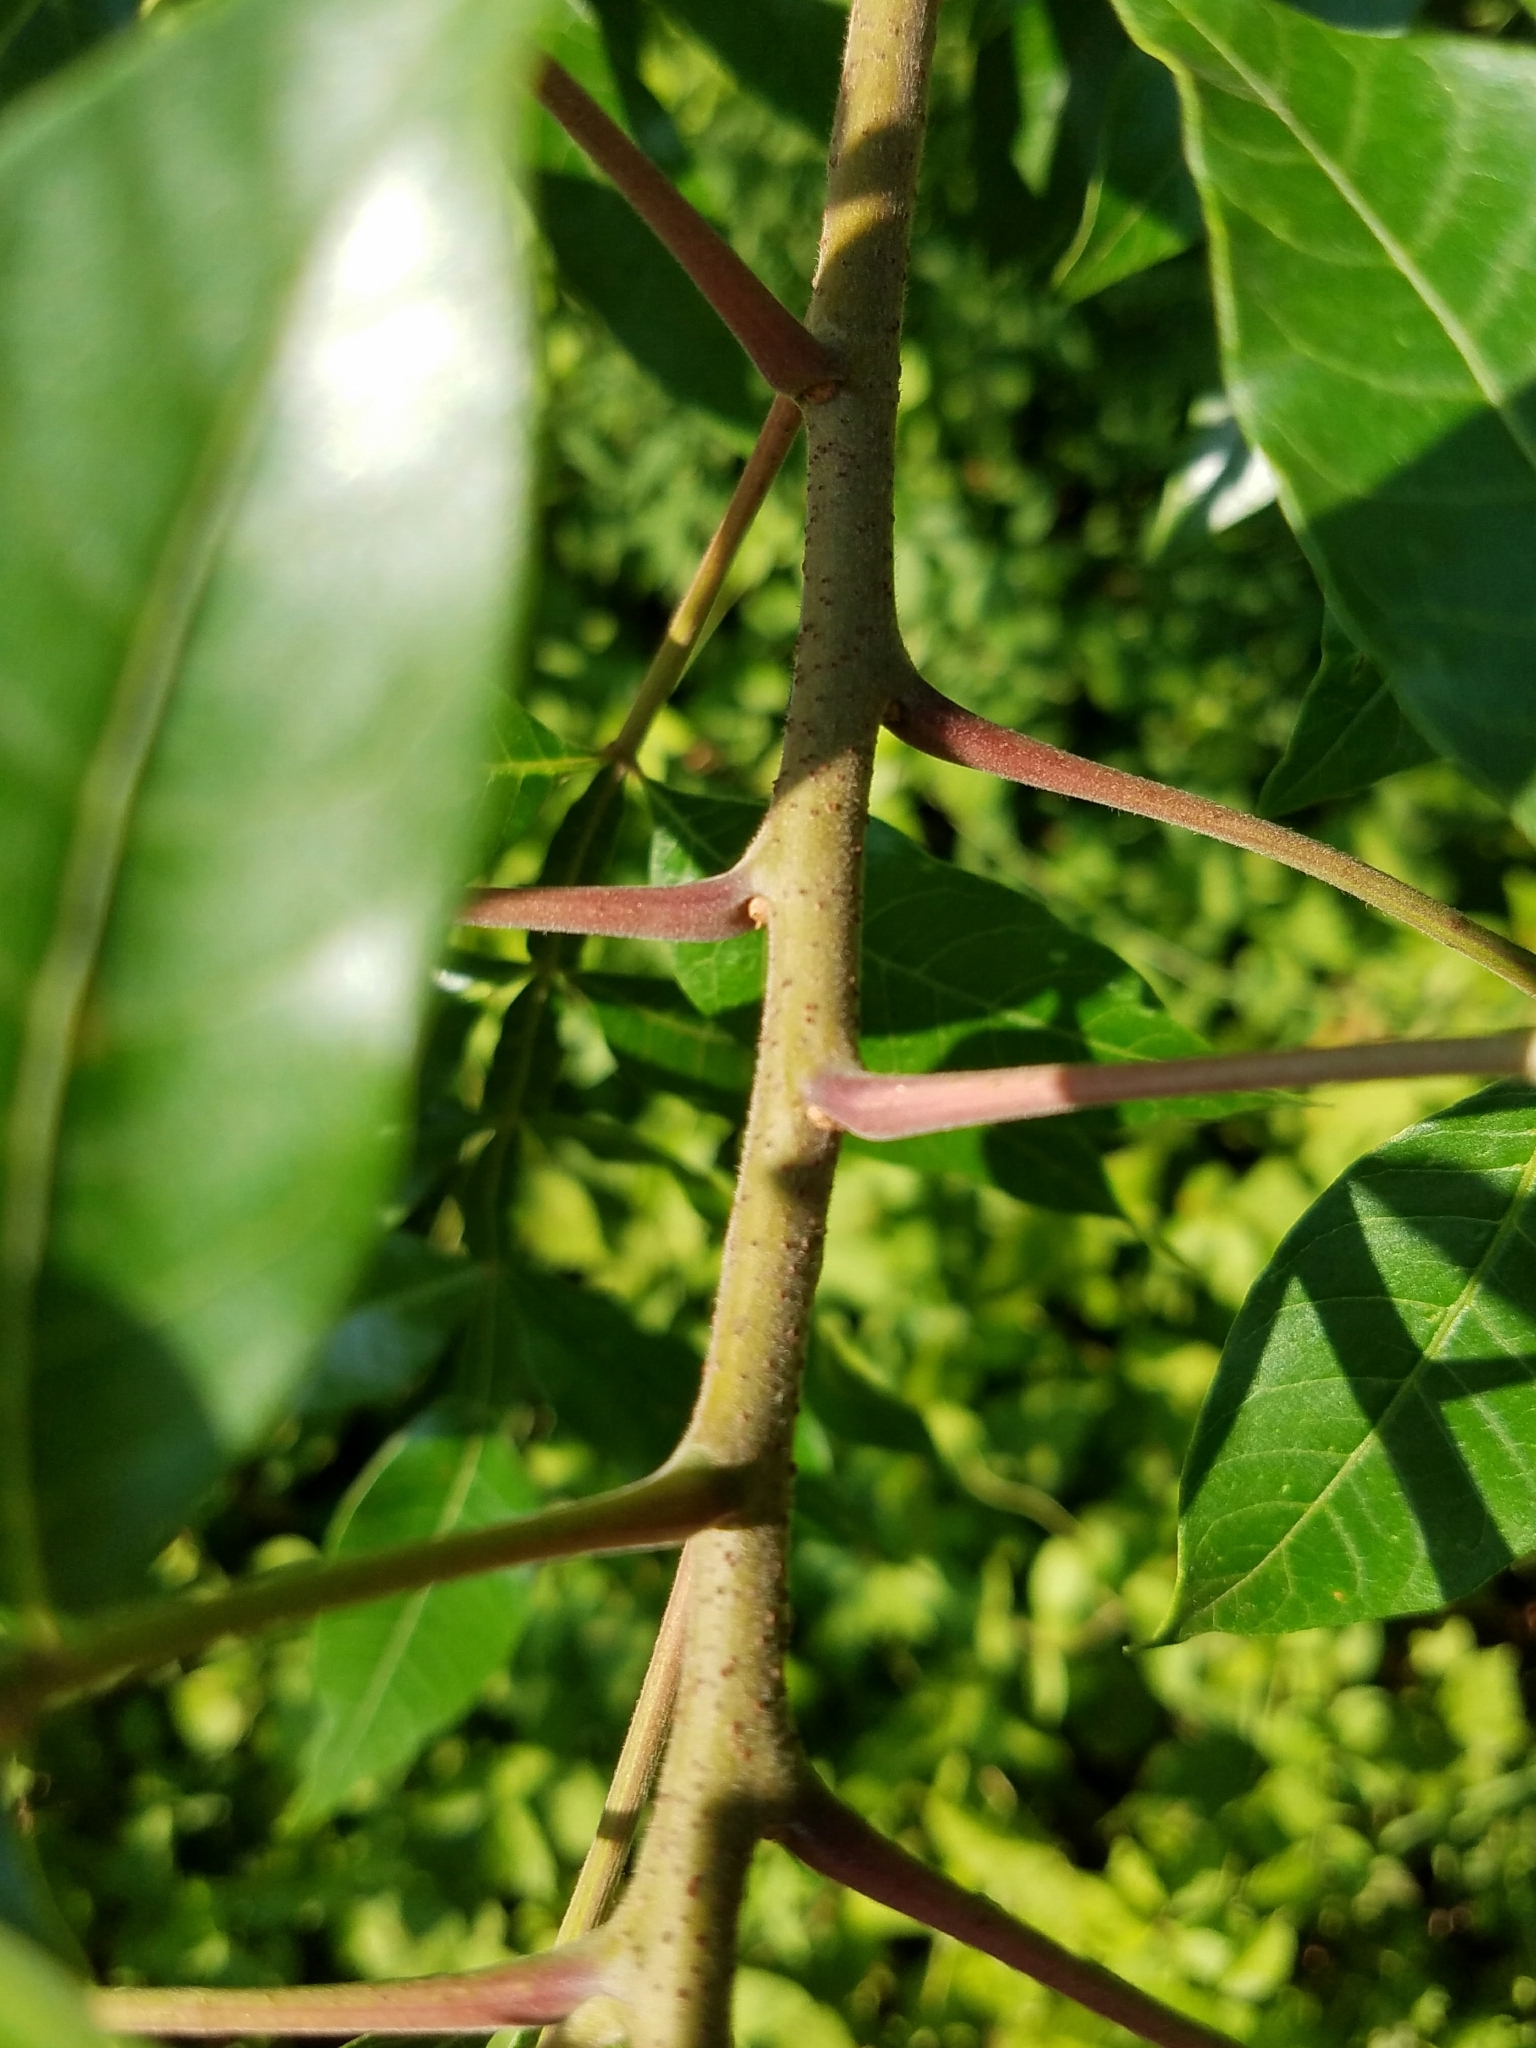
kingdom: Plantae
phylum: Tracheophyta
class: Magnoliopsida
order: Sapindales
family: Anacardiaceae
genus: Rhus
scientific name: Rhus copallina
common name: Shining sumac
